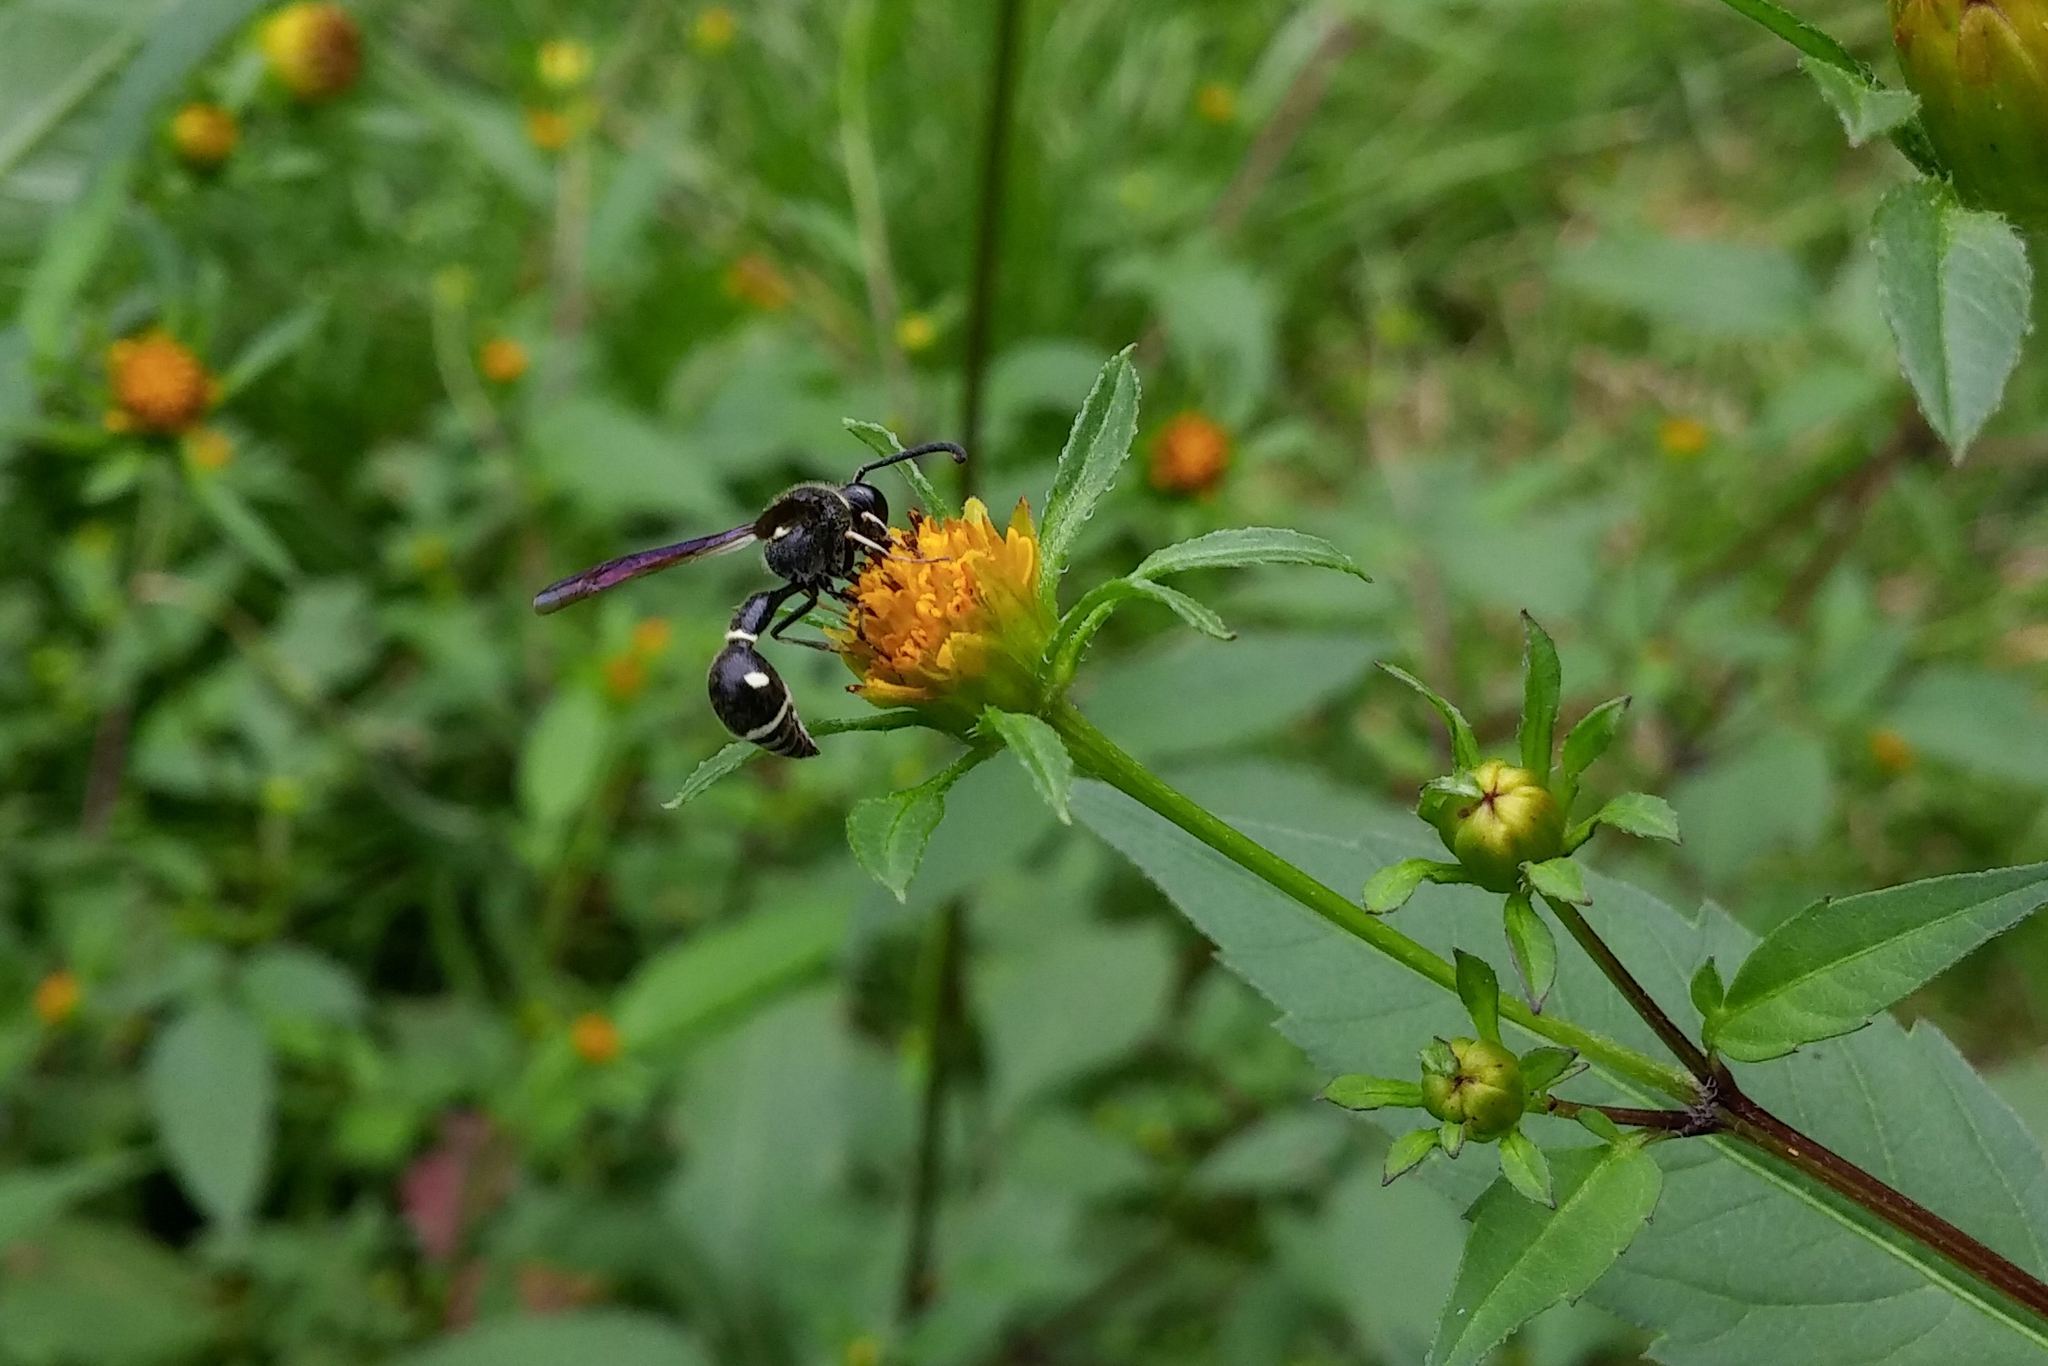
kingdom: Animalia
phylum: Arthropoda
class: Insecta
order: Hymenoptera
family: Vespidae
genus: Eumenes
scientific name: Eumenes fraternus
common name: Fraternal potter wasp
